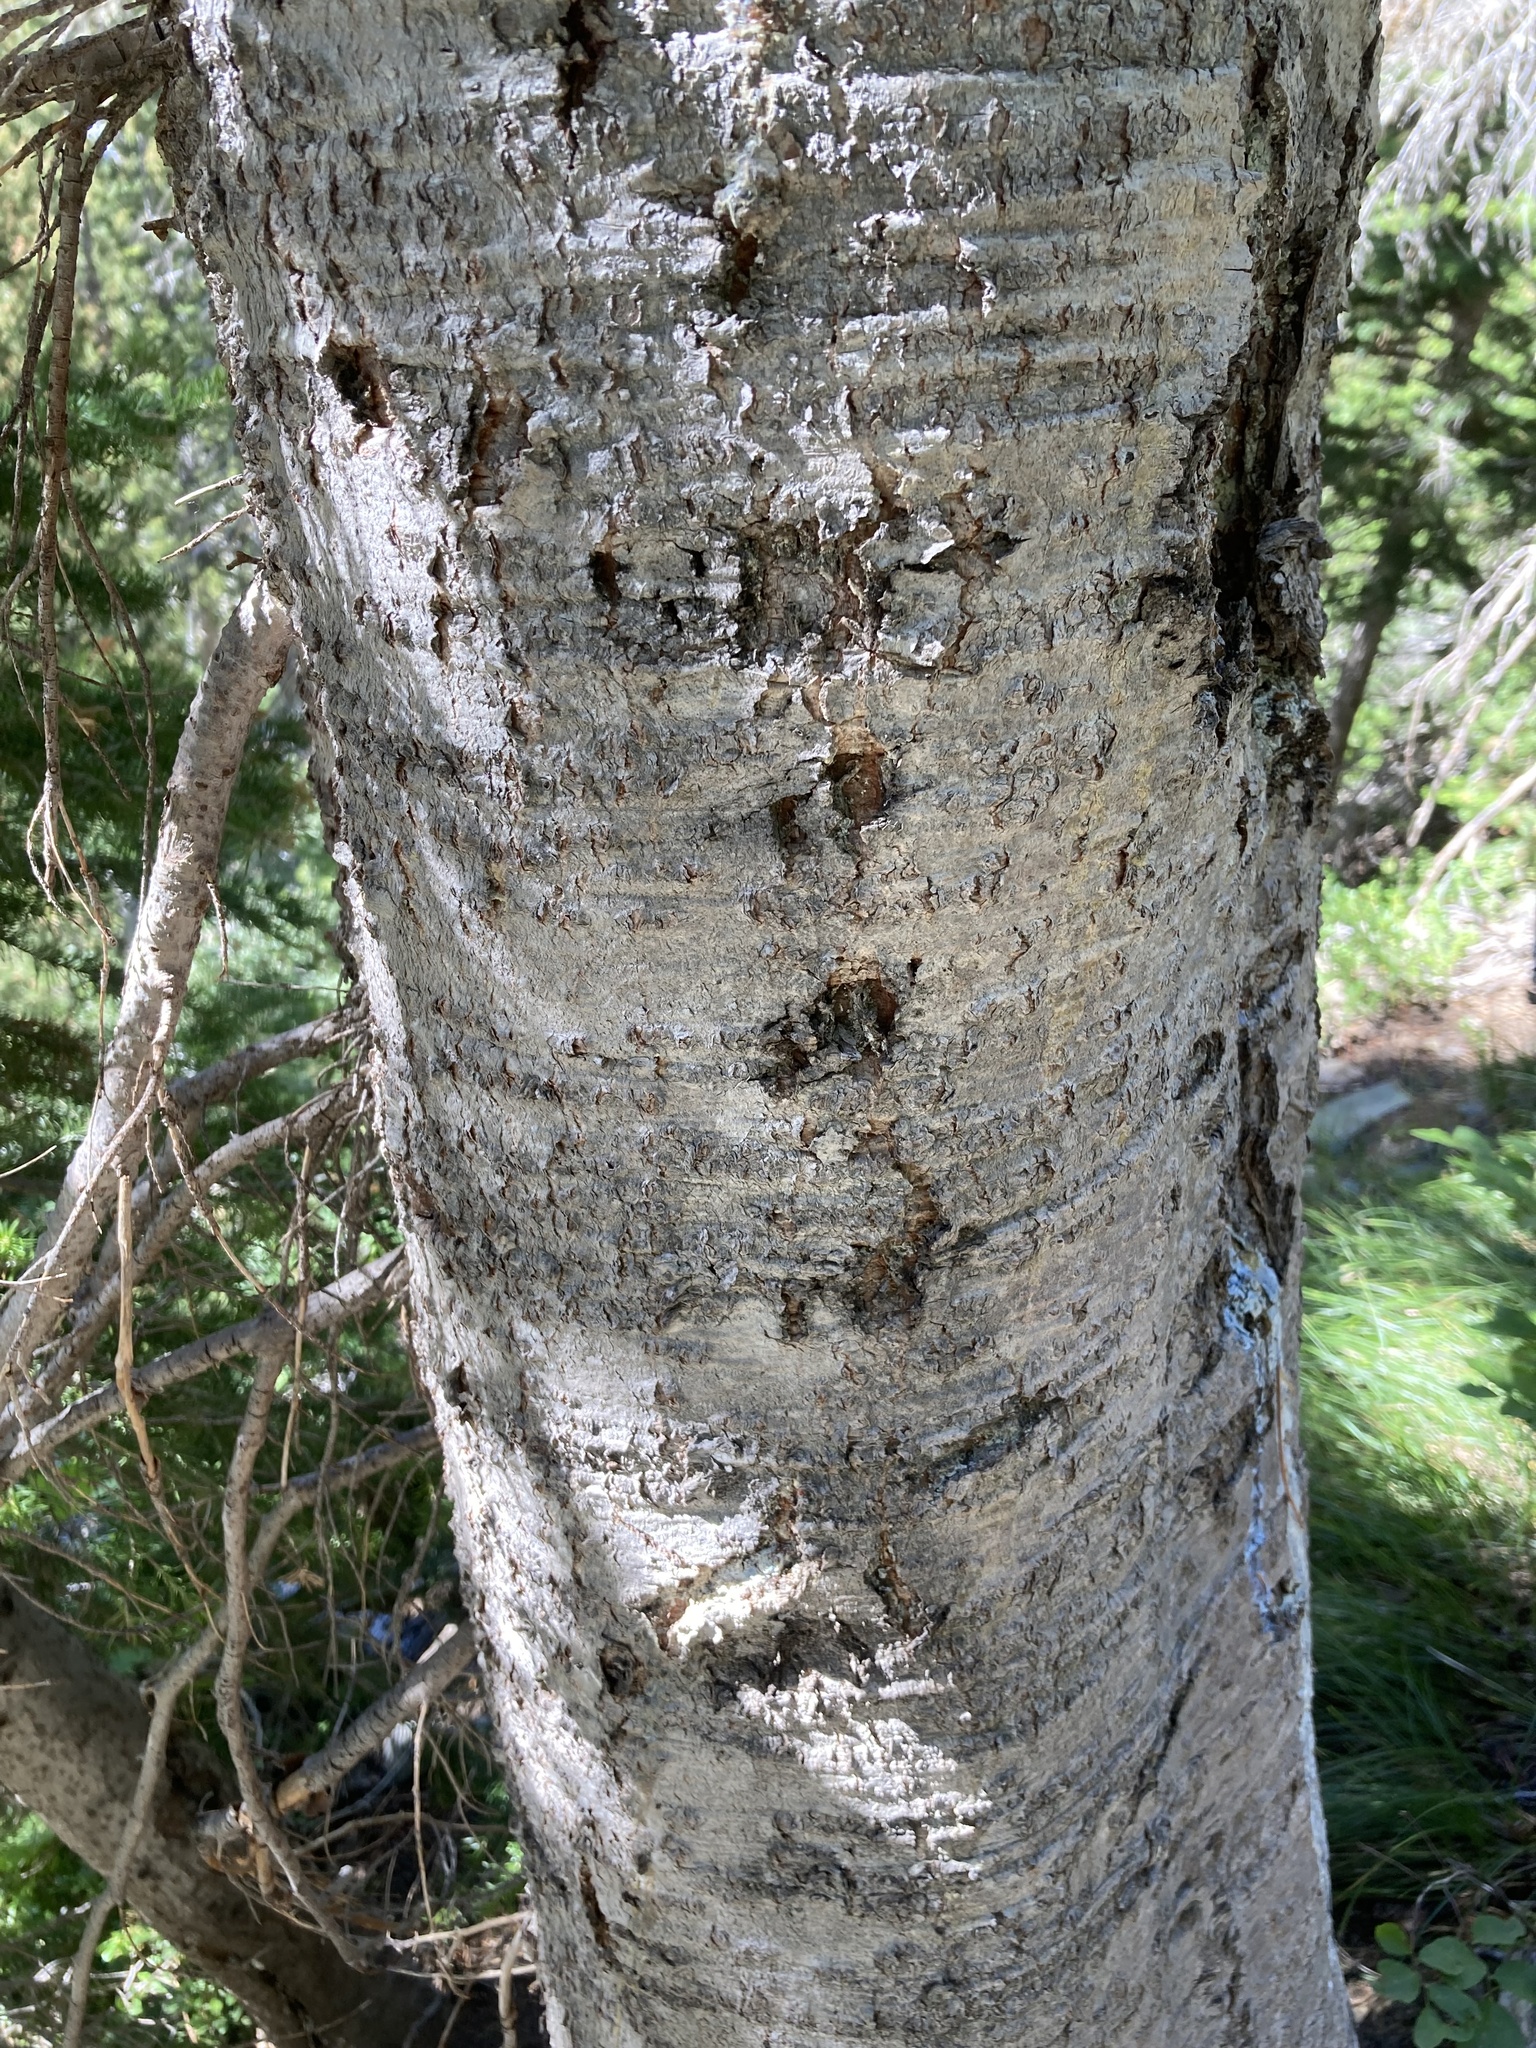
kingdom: Plantae
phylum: Tracheophyta
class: Pinopsida
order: Pinales
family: Pinaceae
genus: Abies
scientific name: Abies lasiocarpa
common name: Subalpine fir
